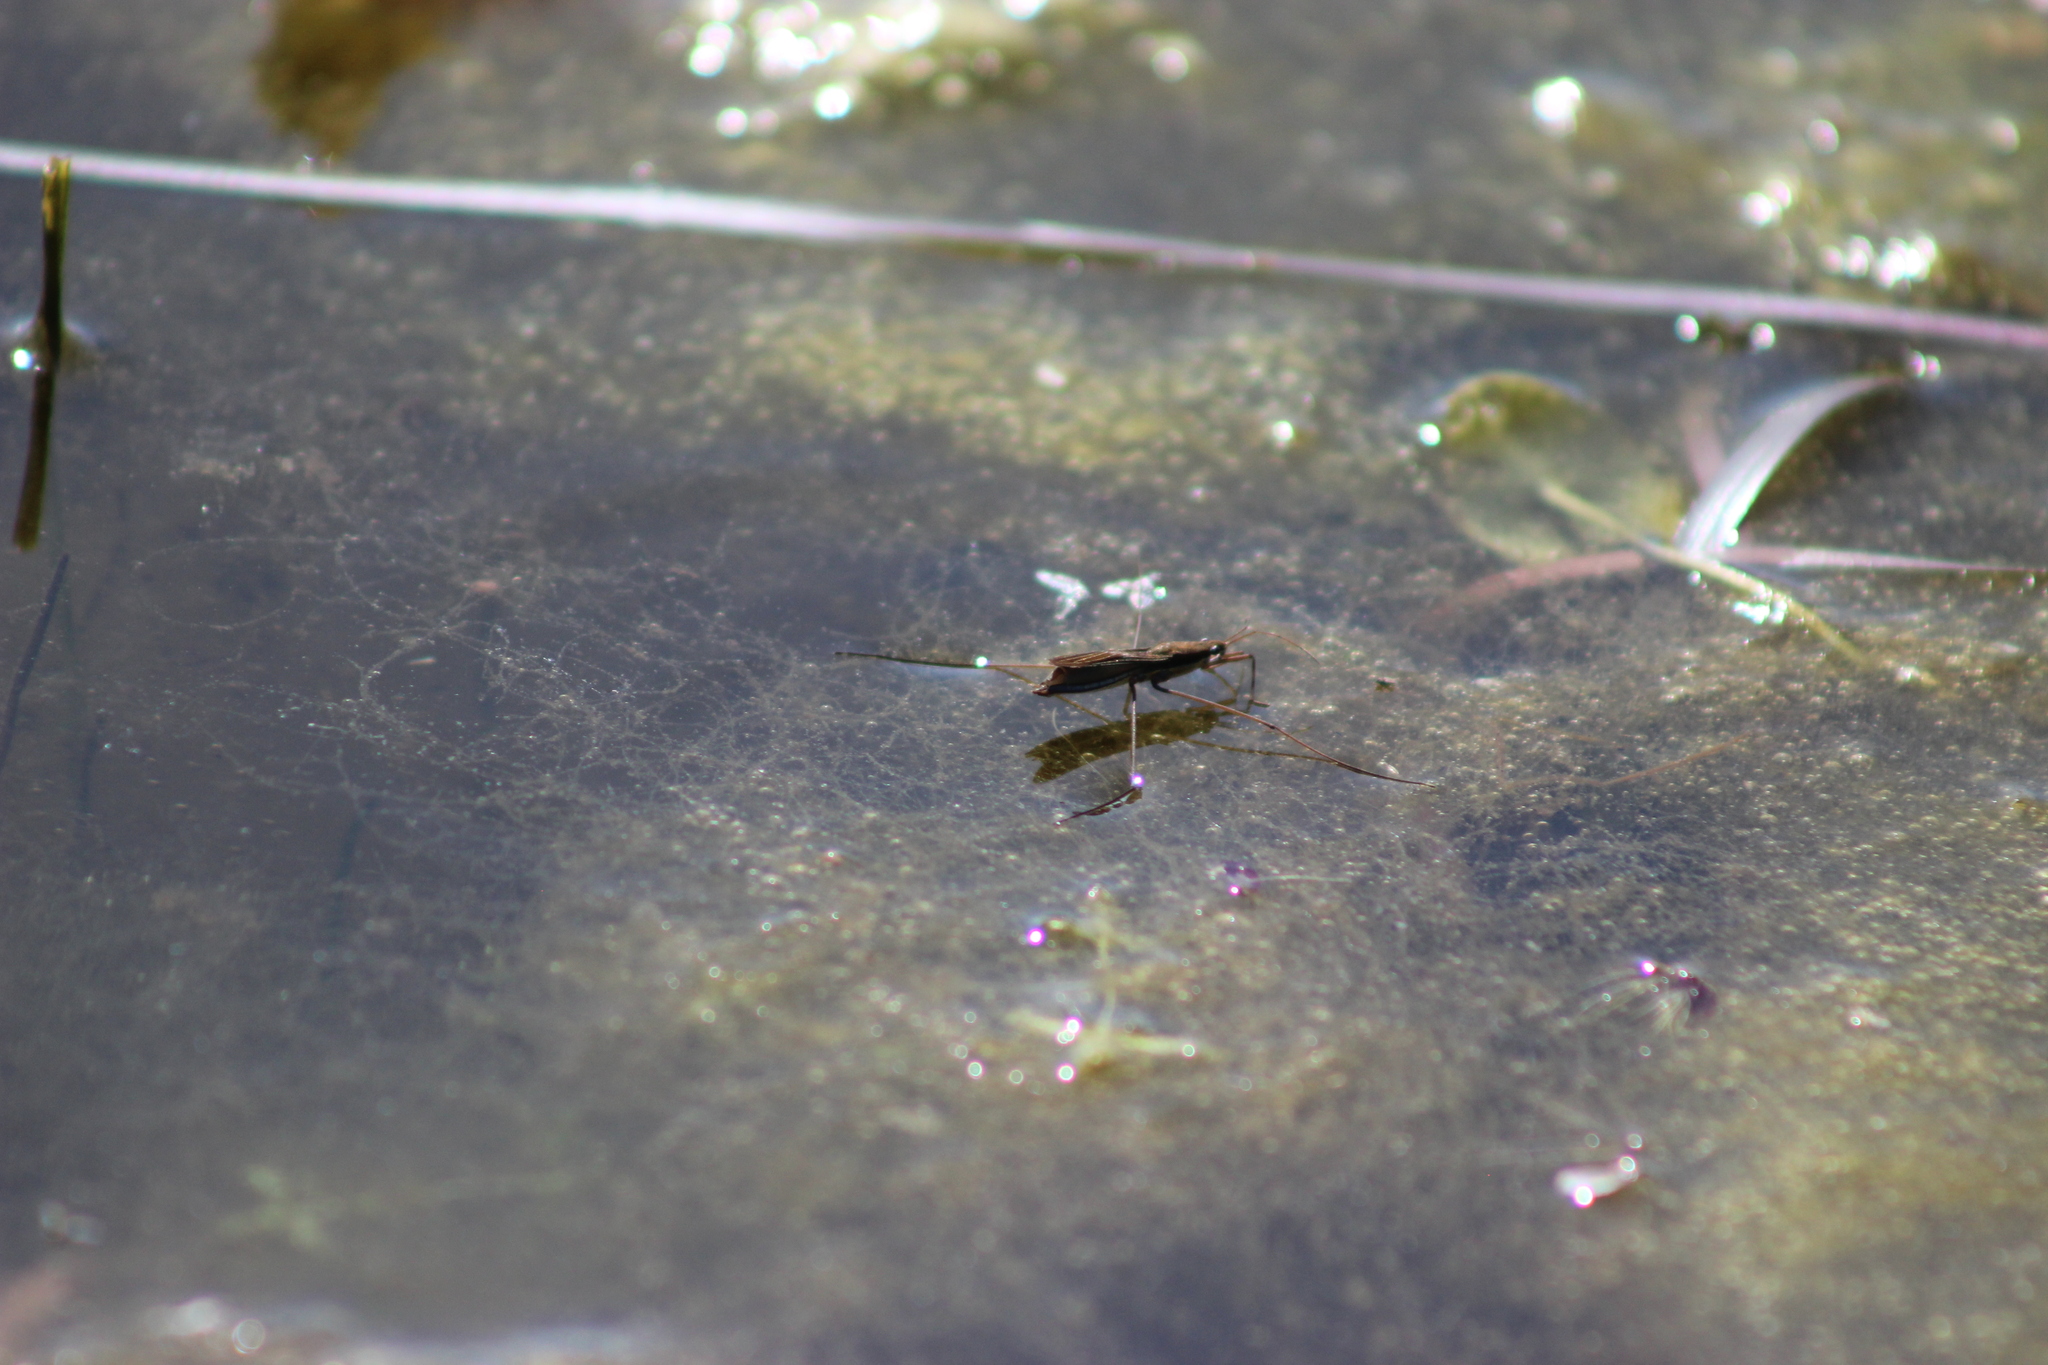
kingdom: Animalia
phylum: Arthropoda
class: Insecta
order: Hemiptera
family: Gerridae
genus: Limnoporus
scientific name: Limnoporus rufoscutellatus
